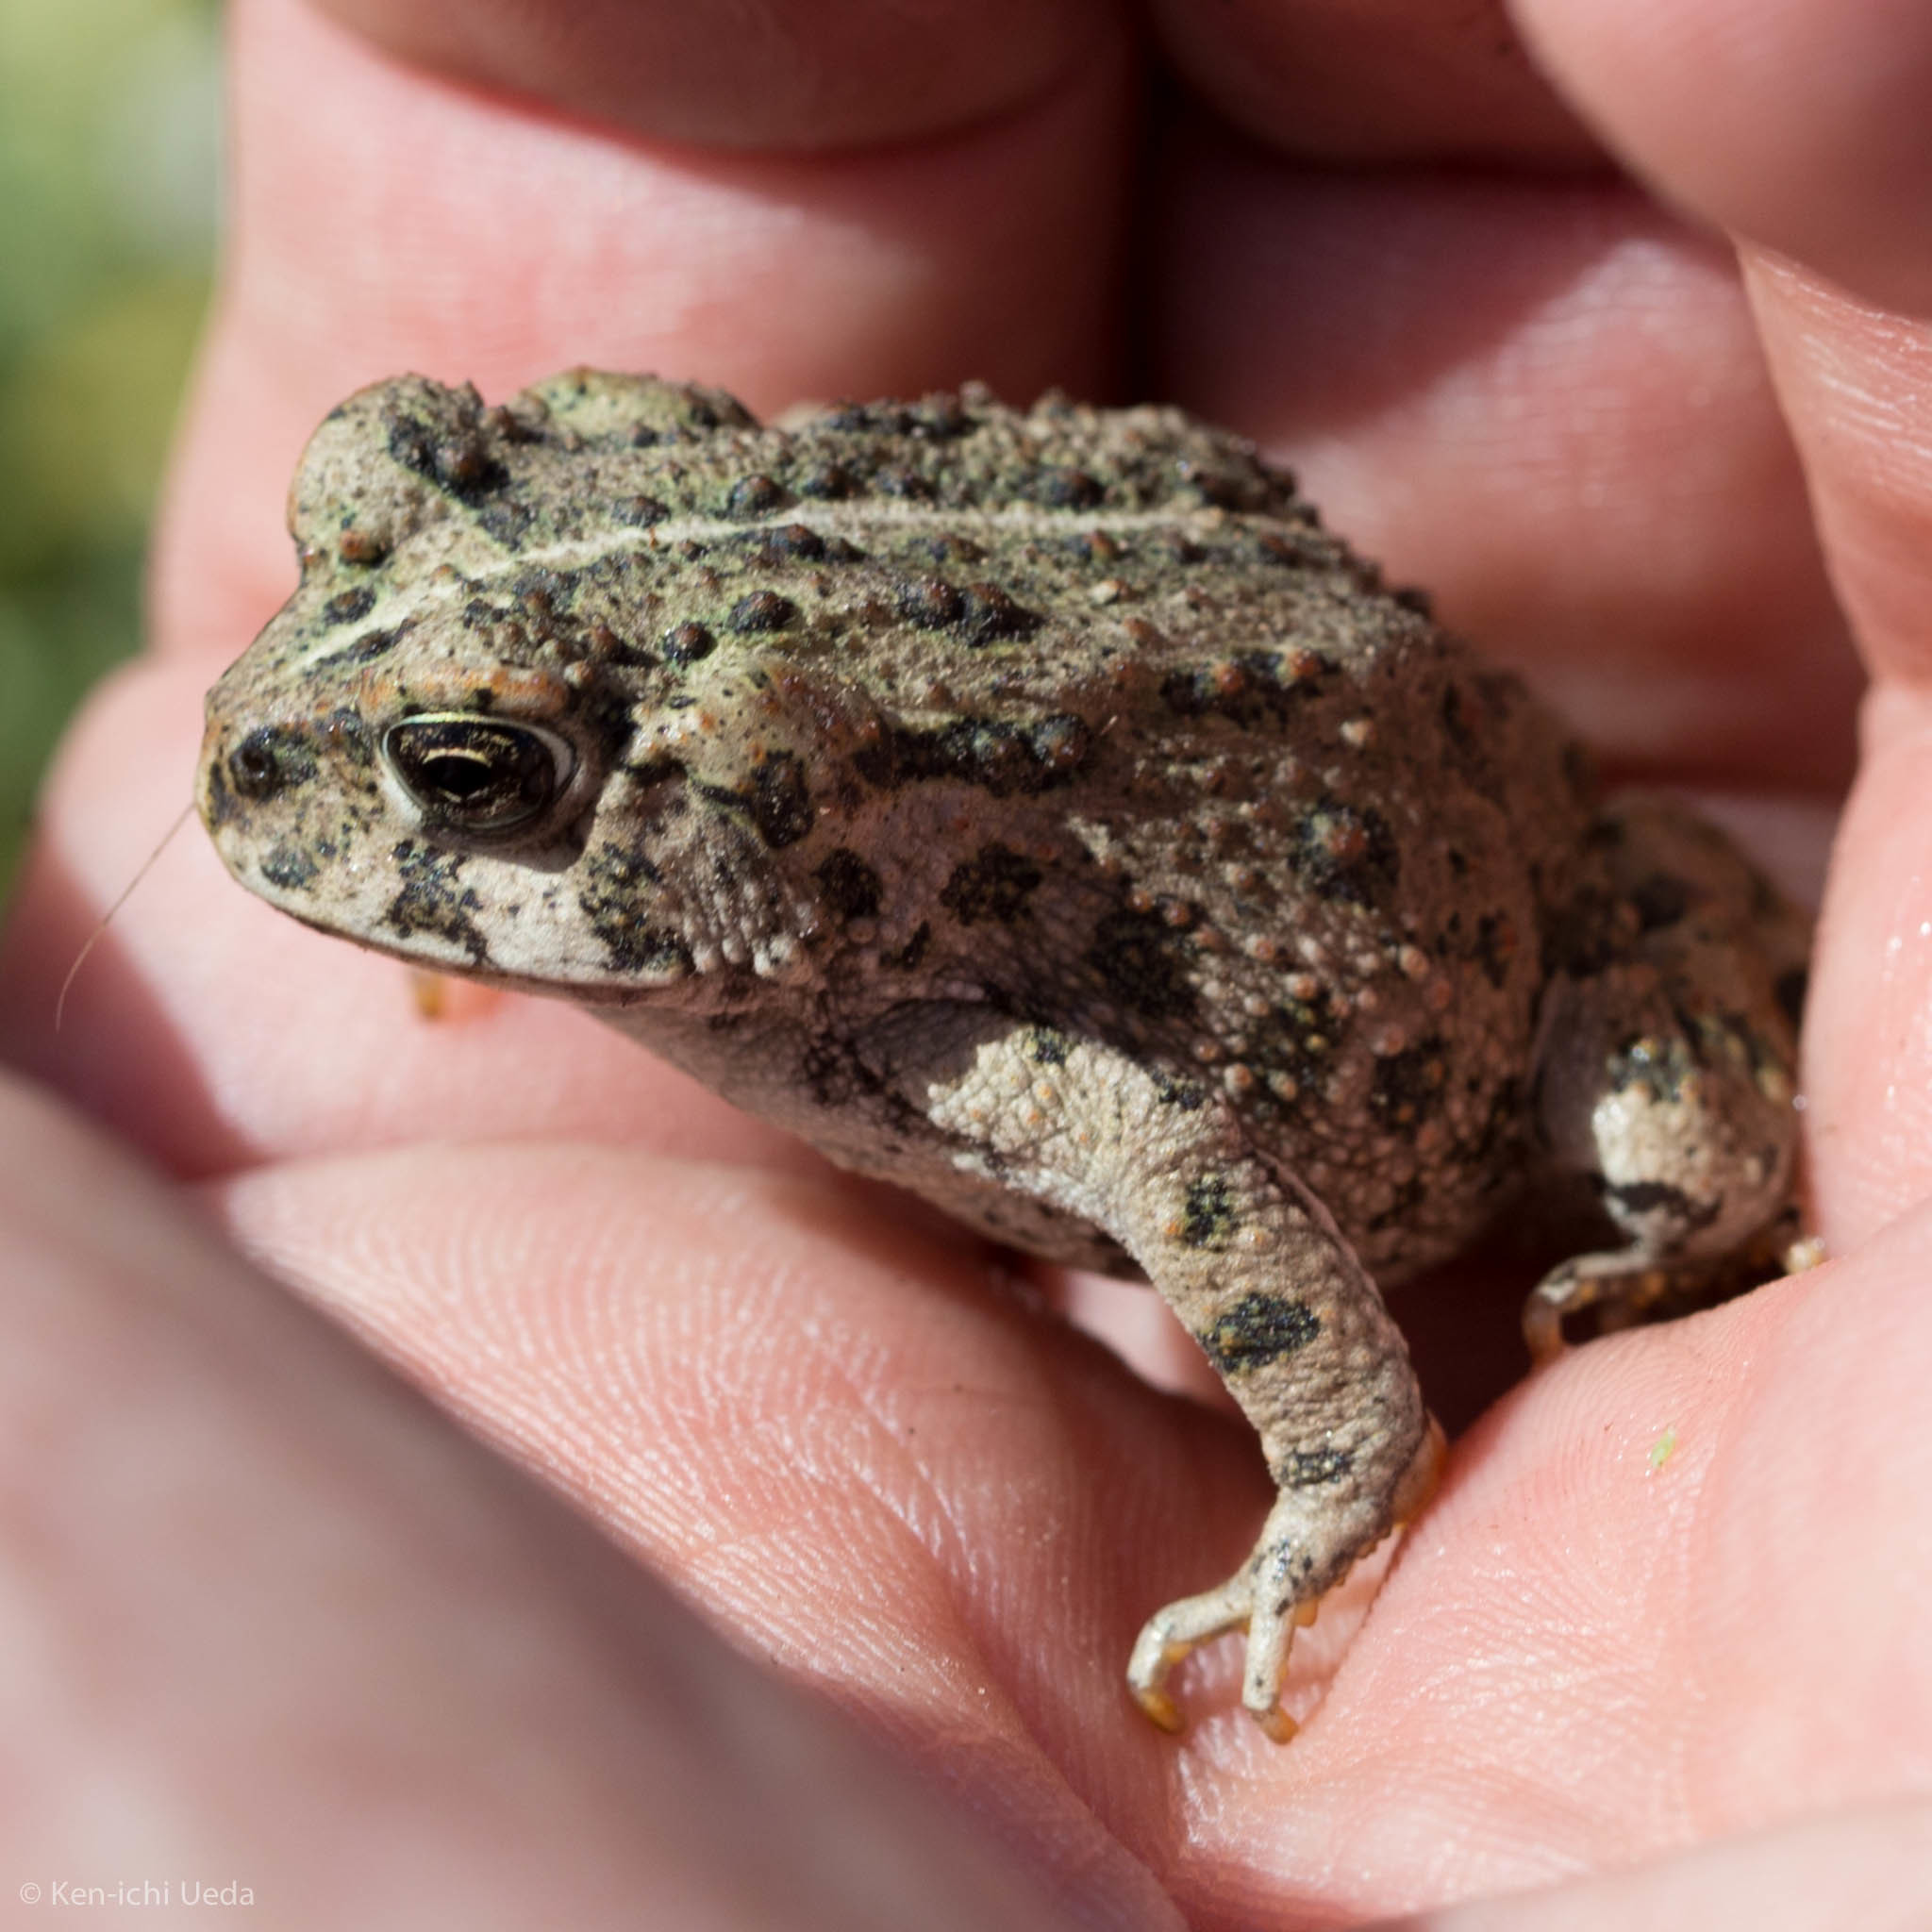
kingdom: Animalia
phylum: Chordata
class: Amphibia
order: Anura
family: Bufonidae
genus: Anaxyrus
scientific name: Anaxyrus boreas
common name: Western toad
